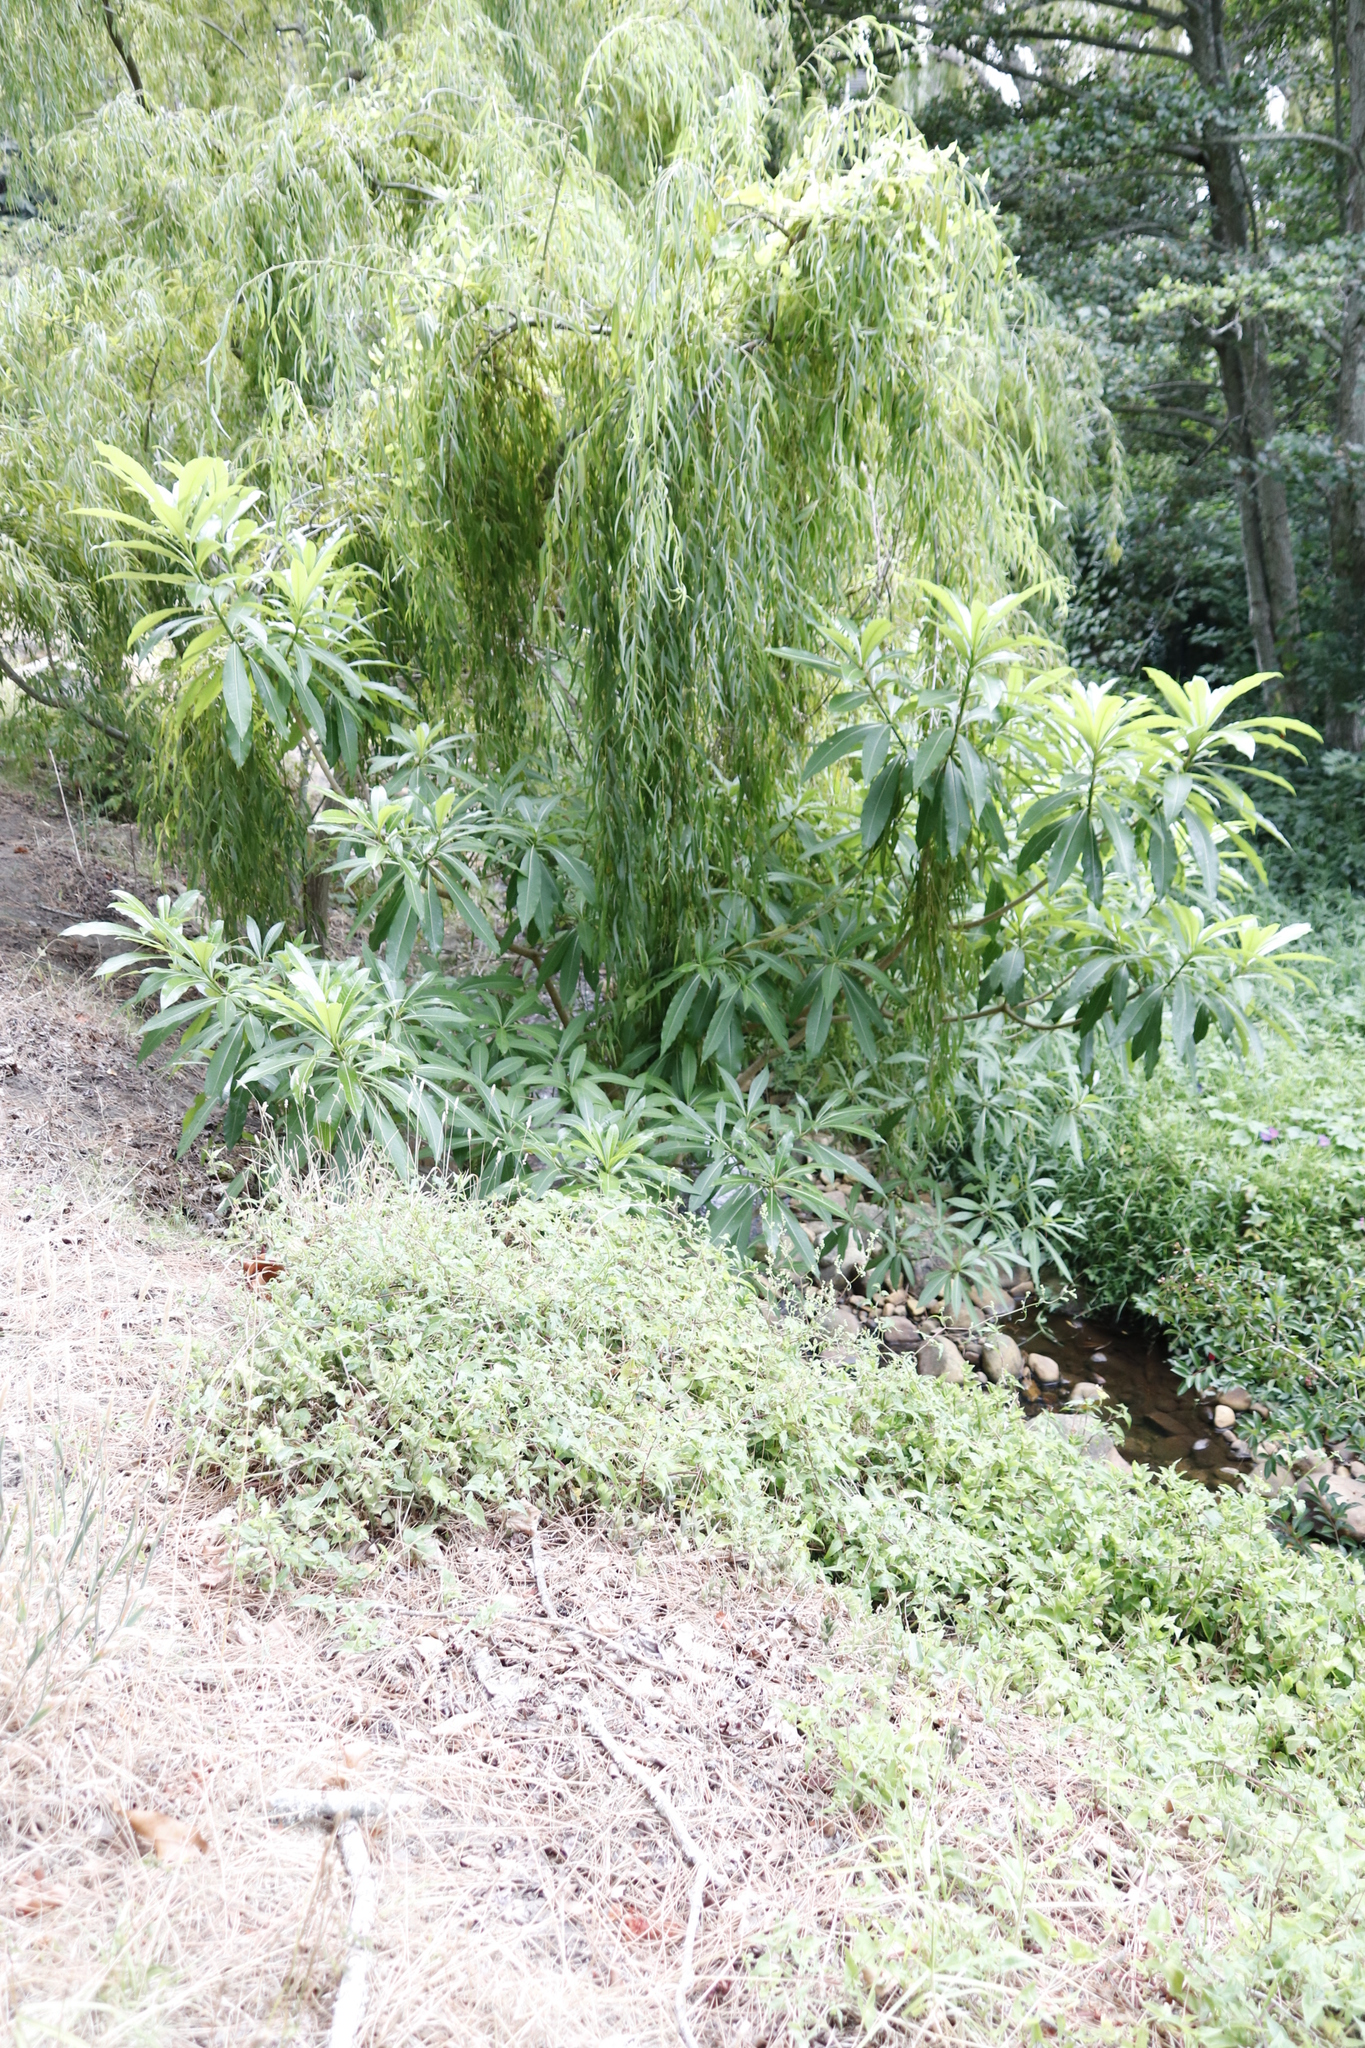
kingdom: Plantae
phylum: Tracheophyta
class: Magnoliopsida
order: Gentianales
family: Apocynaceae
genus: Rauvolfia
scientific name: Rauvolfia caffra
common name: Quininetree
